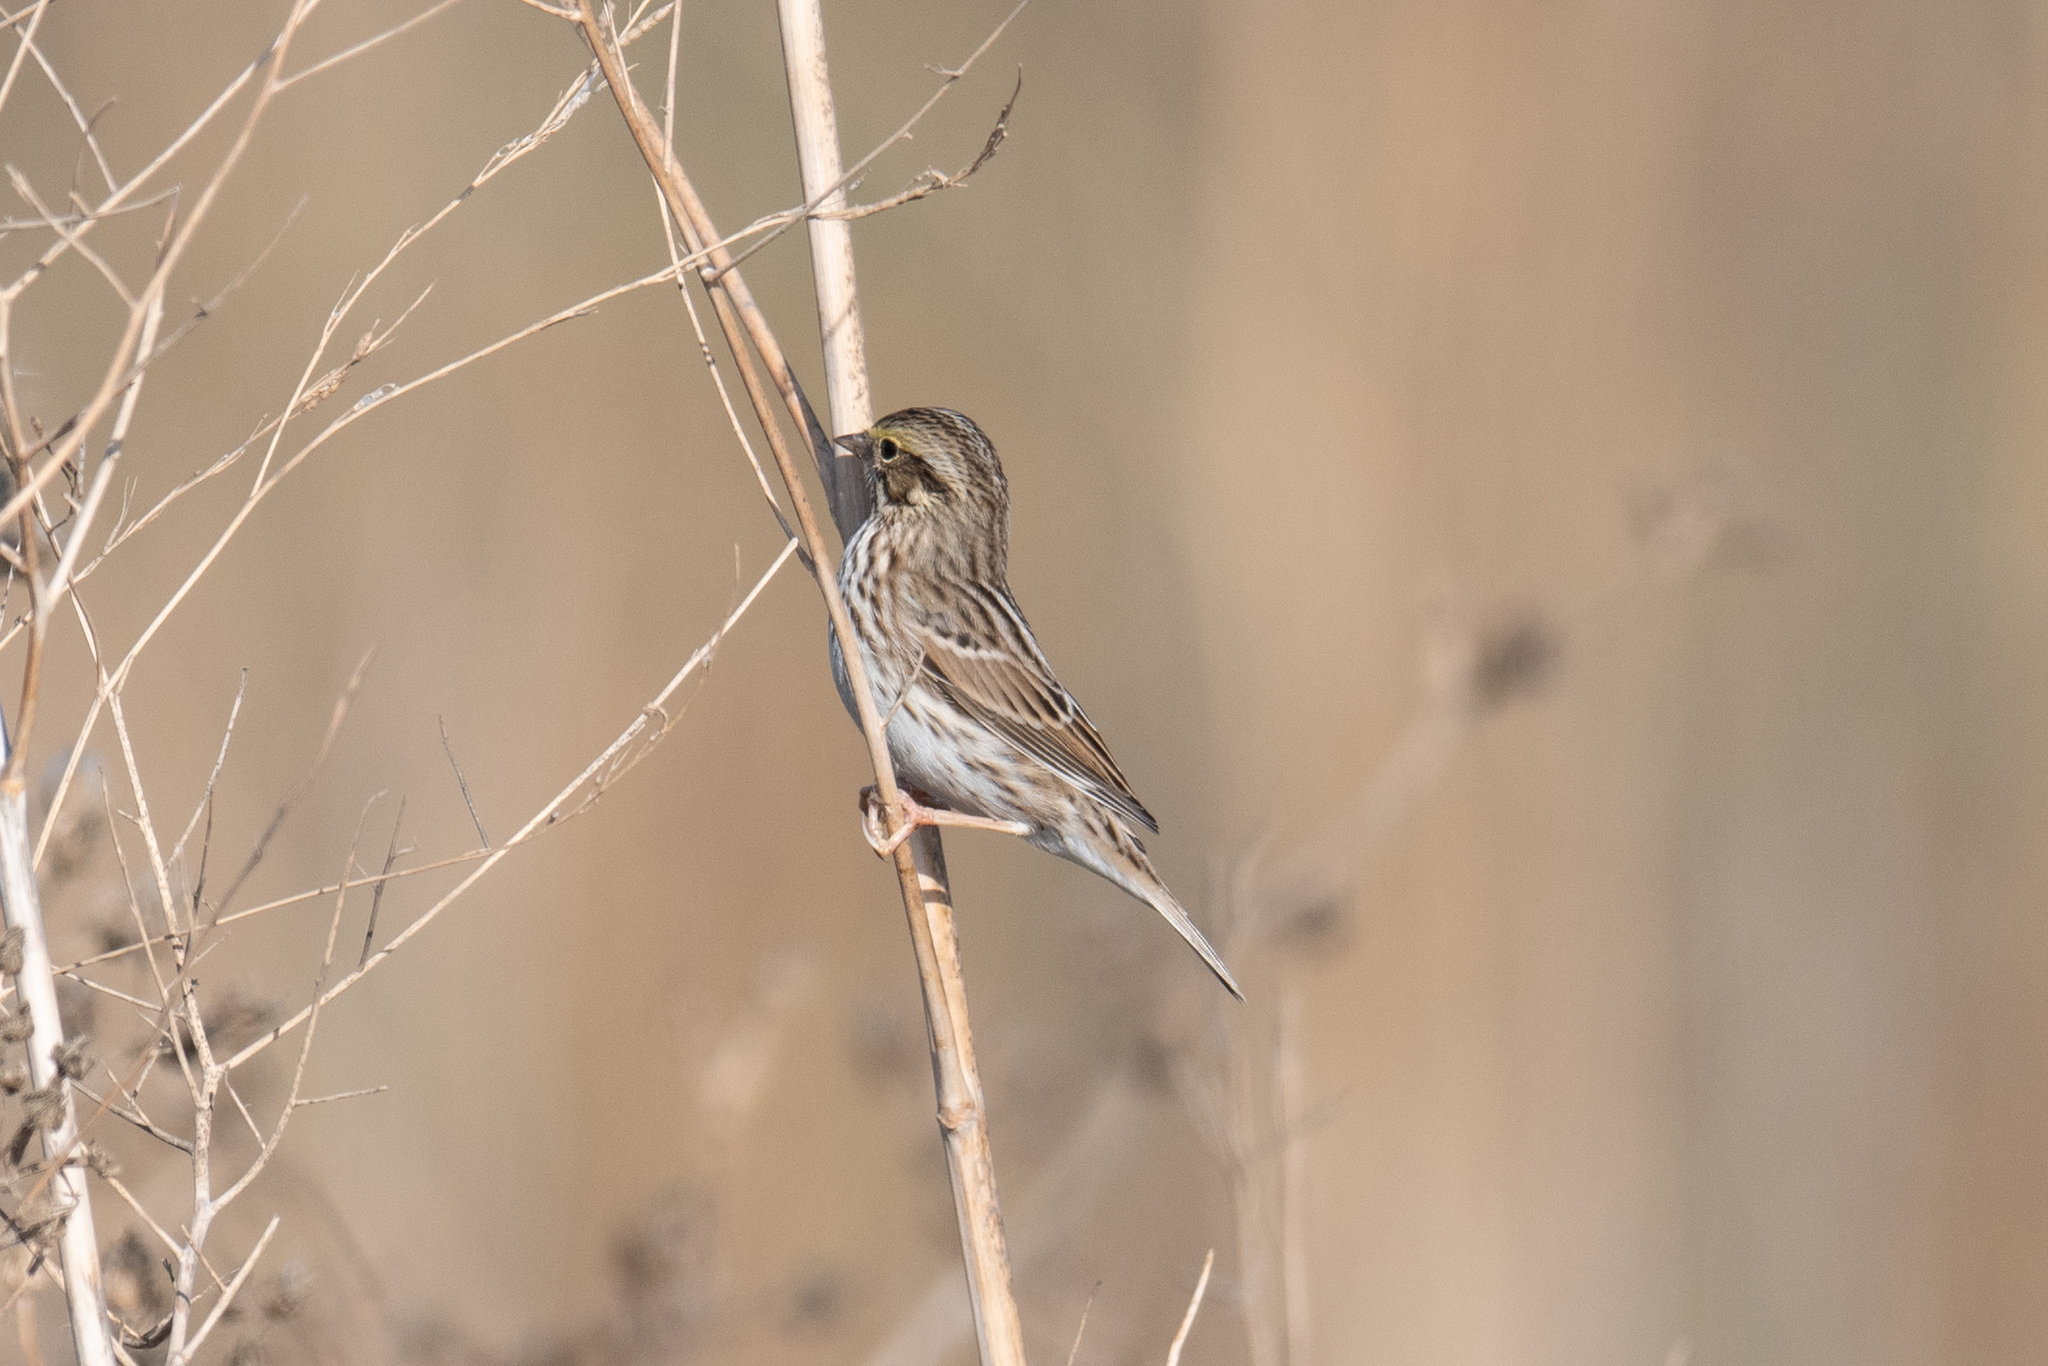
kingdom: Animalia
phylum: Chordata
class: Aves
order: Passeriformes
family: Passerellidae
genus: Passerculus
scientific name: Passerculus sandwichensis
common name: Savannah sparrow
